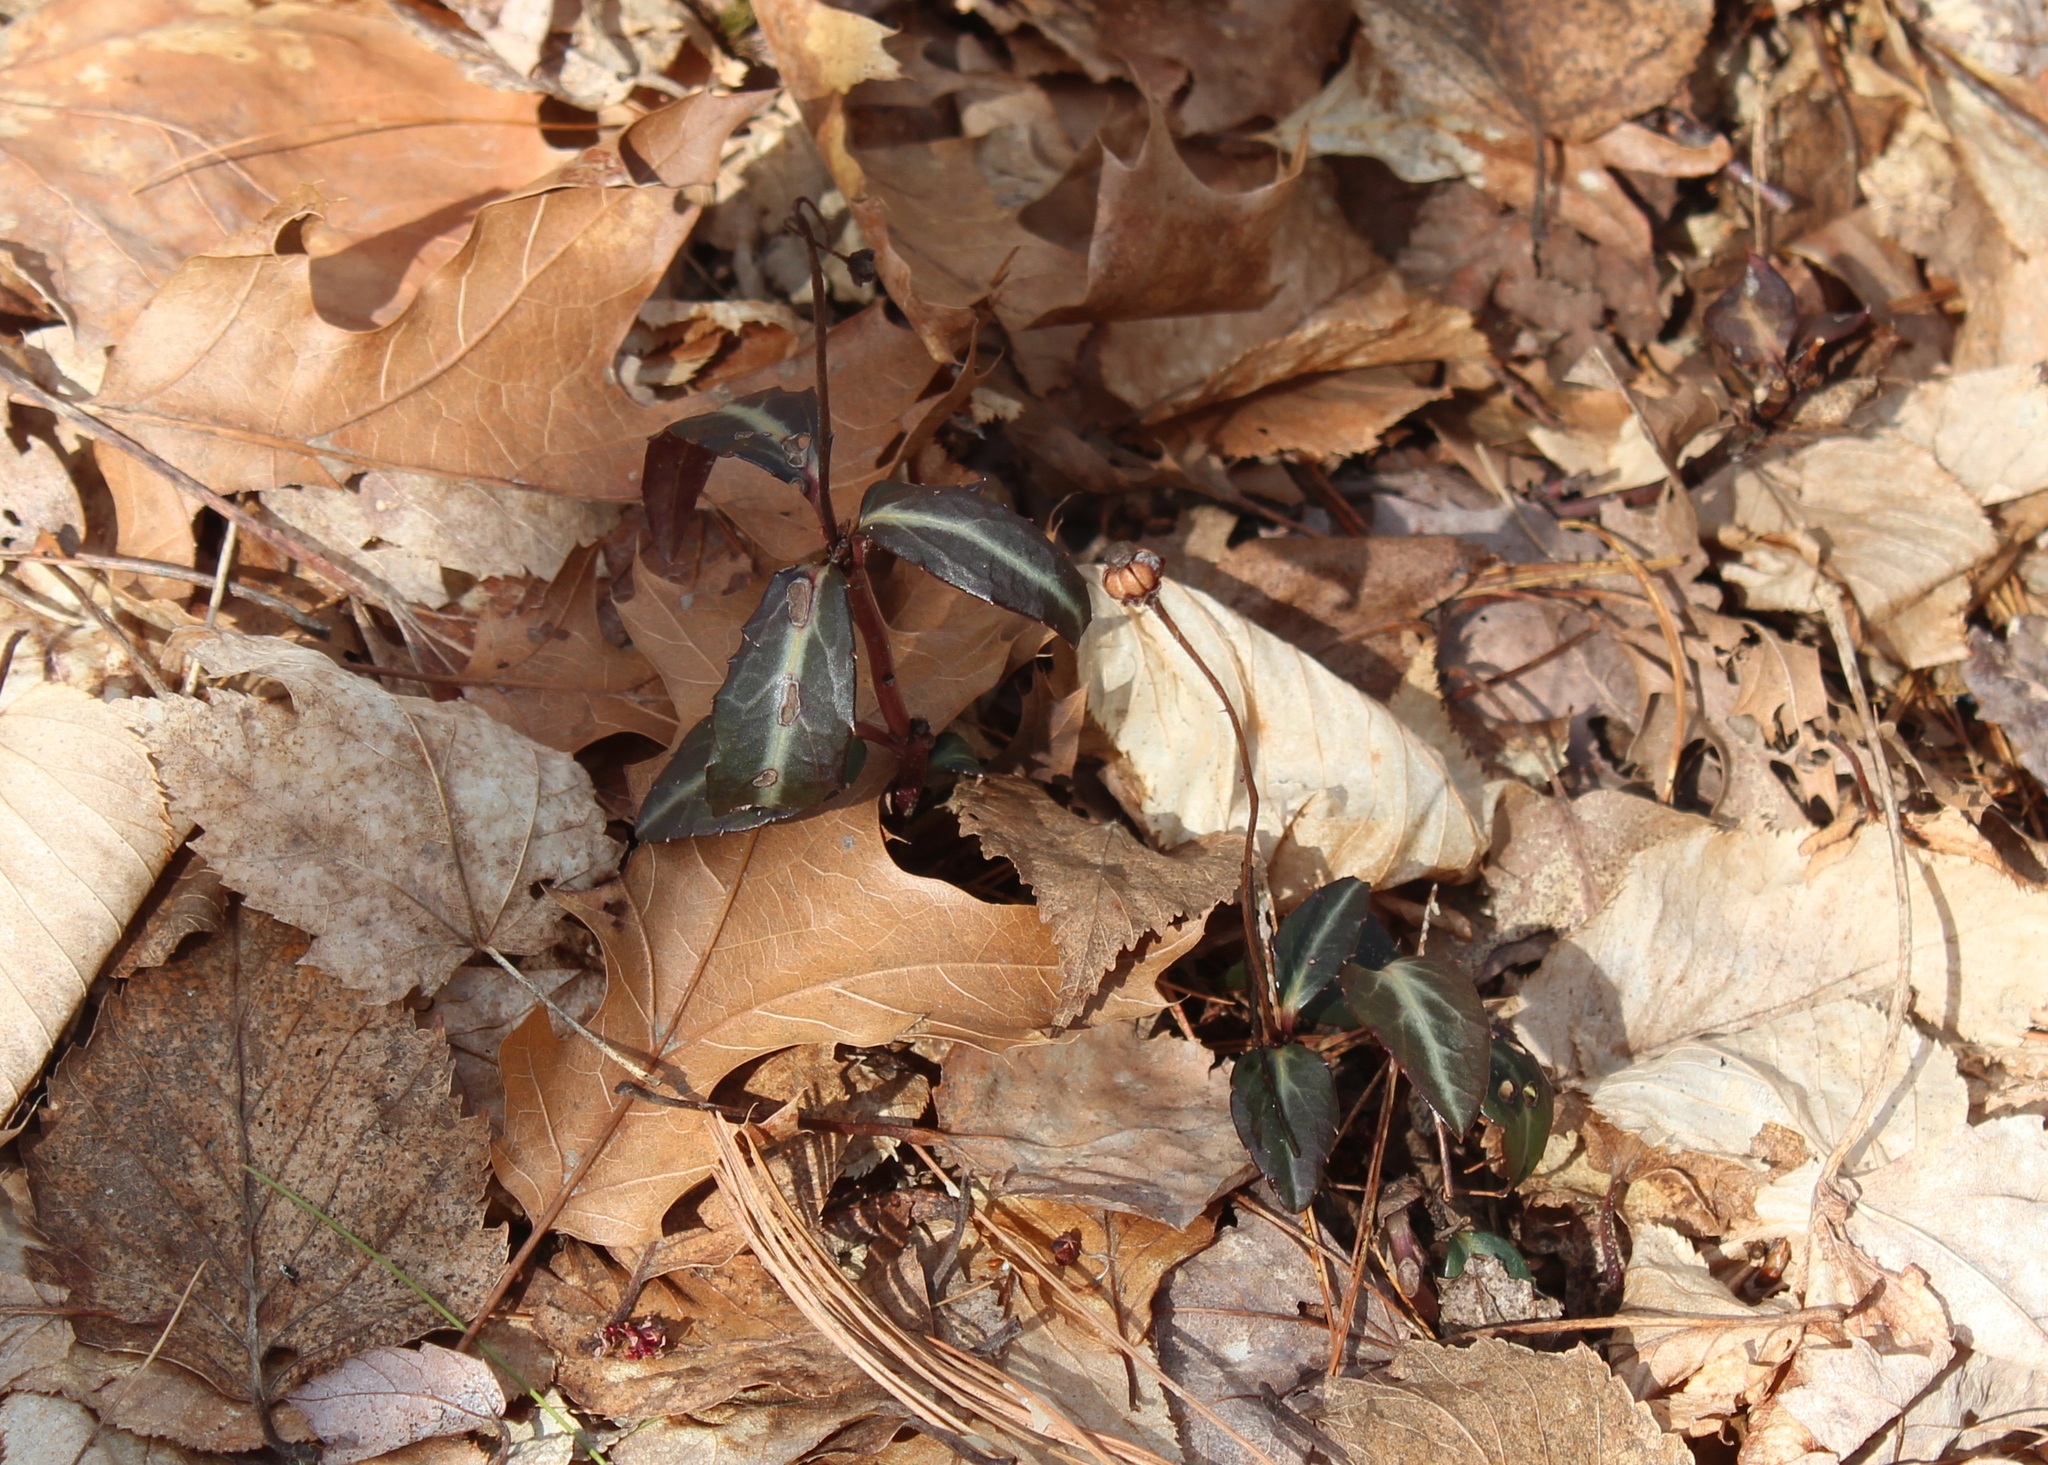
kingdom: Plantae
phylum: Tracheophyta
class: Magnoliopsida
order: Ericales
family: Ericaceae
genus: Chimaphila
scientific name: Chimaphila maculata
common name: Spotted pipsissewa
